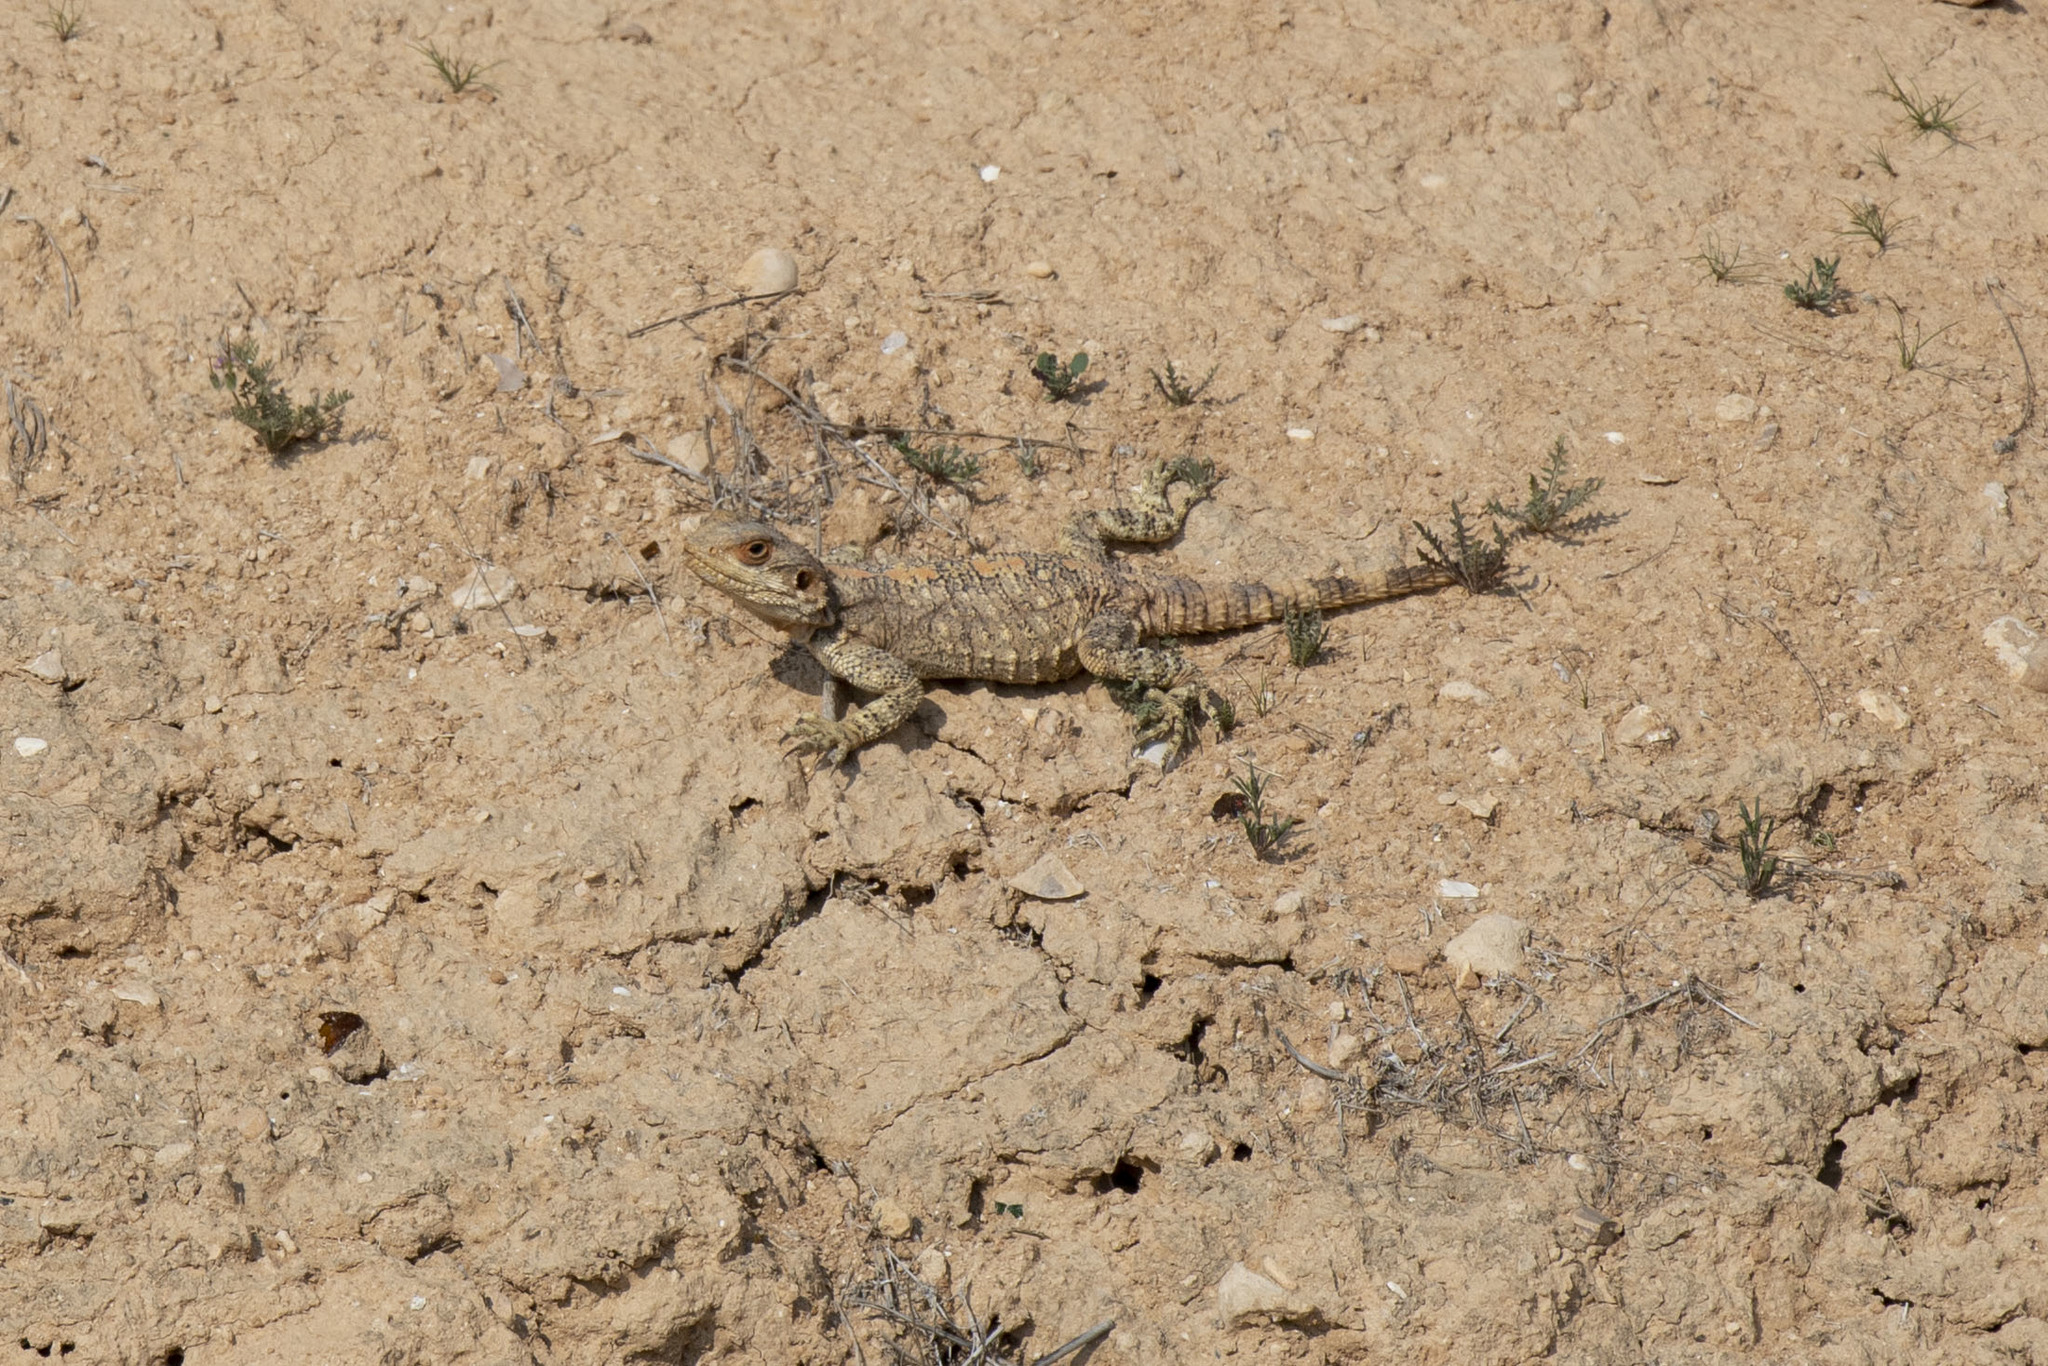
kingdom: Animalia
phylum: Chordata
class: Squamata
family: Agamidae
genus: Laudakia
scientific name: Laudakia vulgaris
